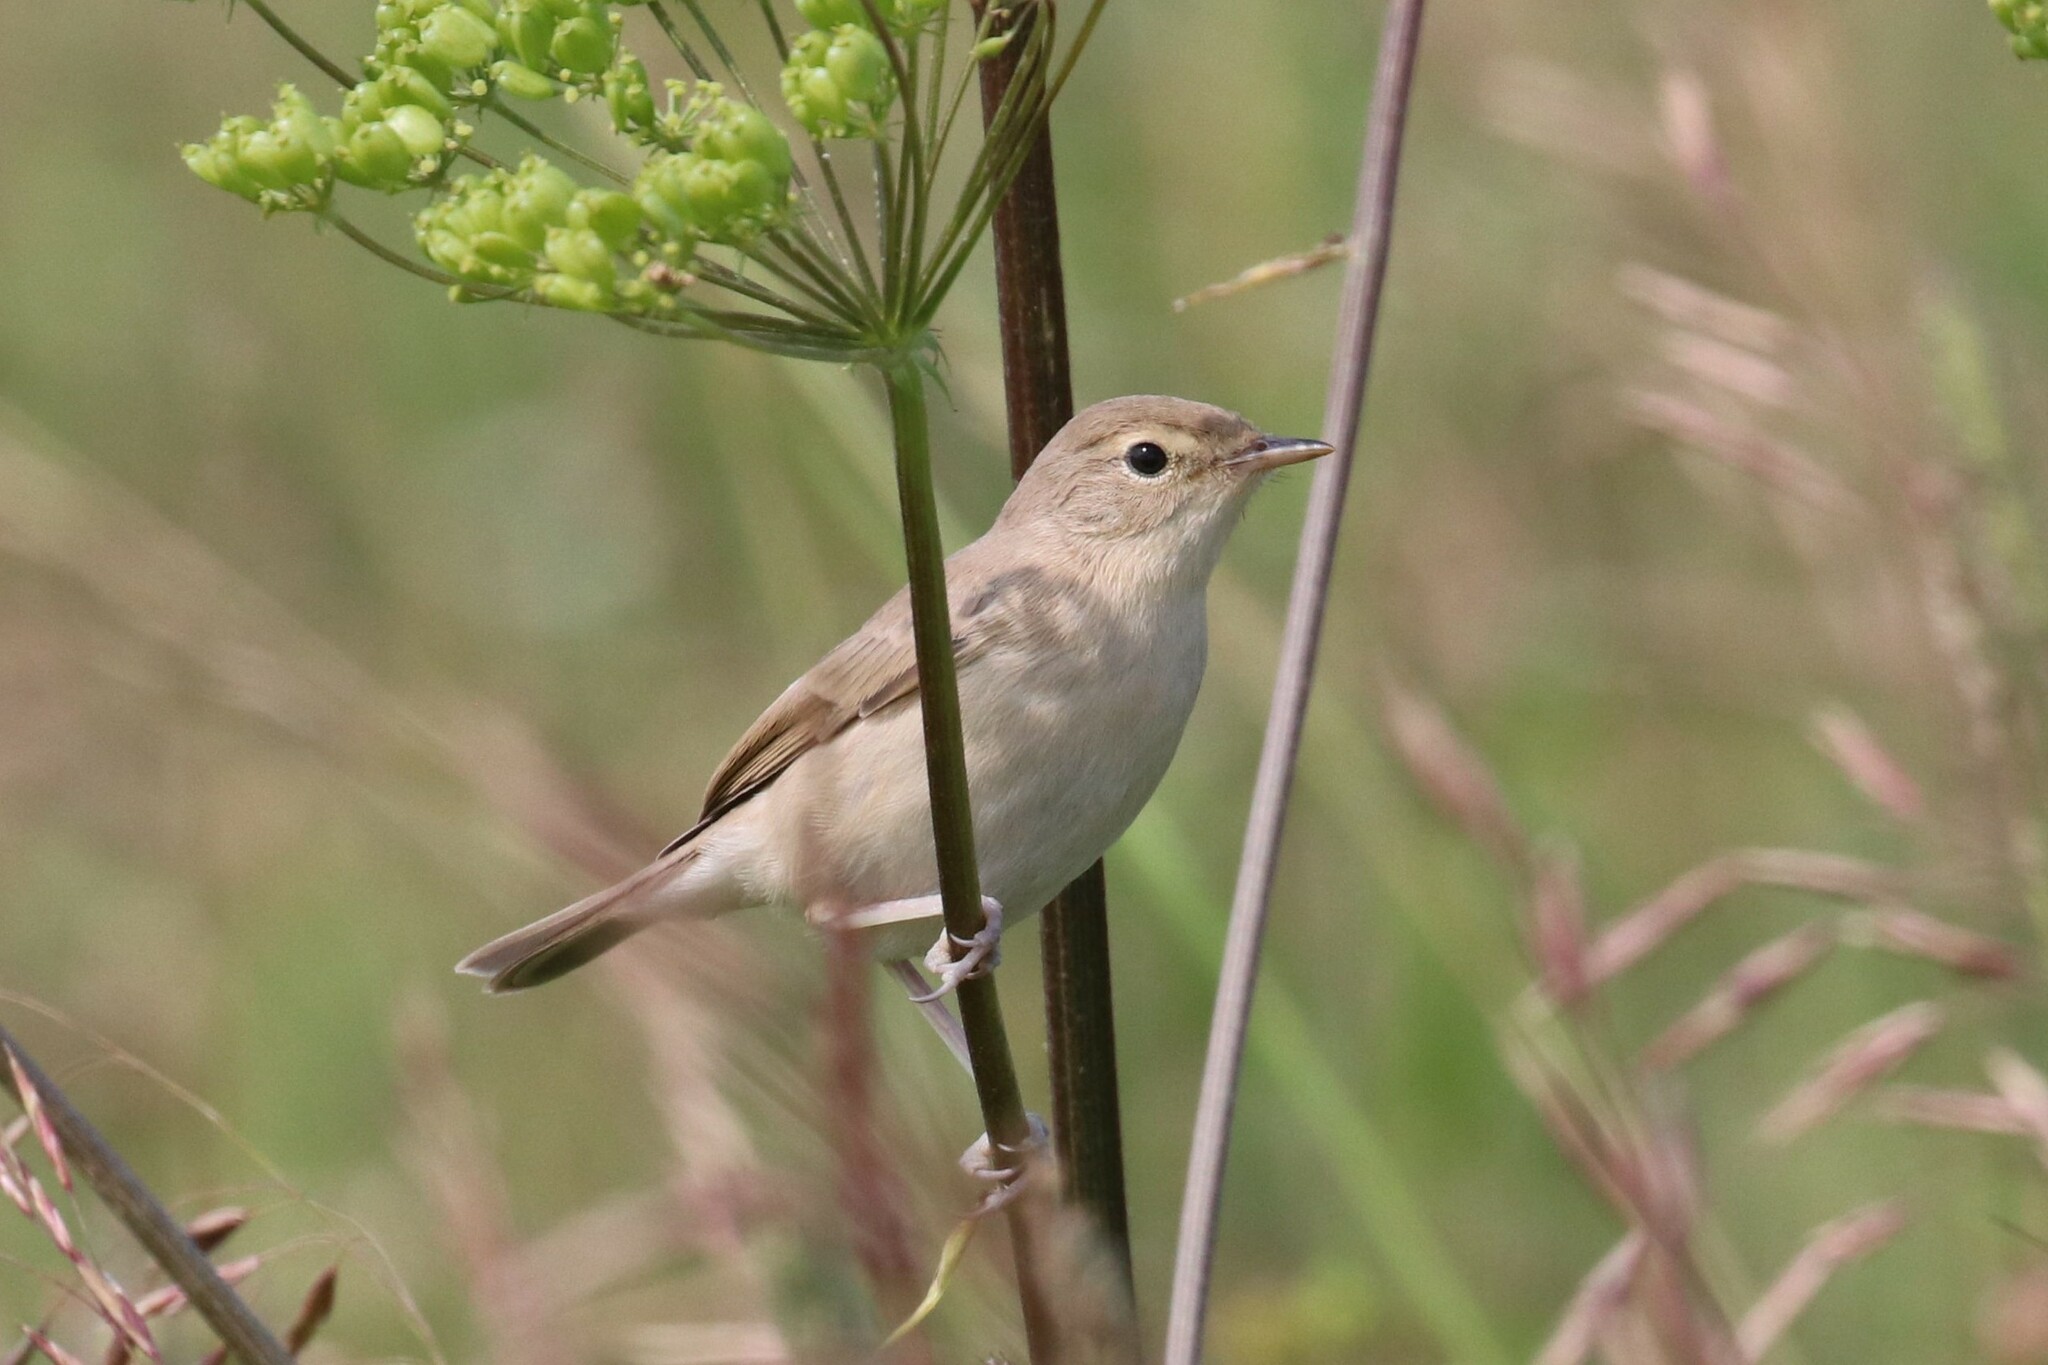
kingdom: Animalia
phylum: Chordata
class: Aves
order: Passeriformes
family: Acrocephalidae
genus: Iduna
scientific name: Iduna caligata
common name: Booted warbler
